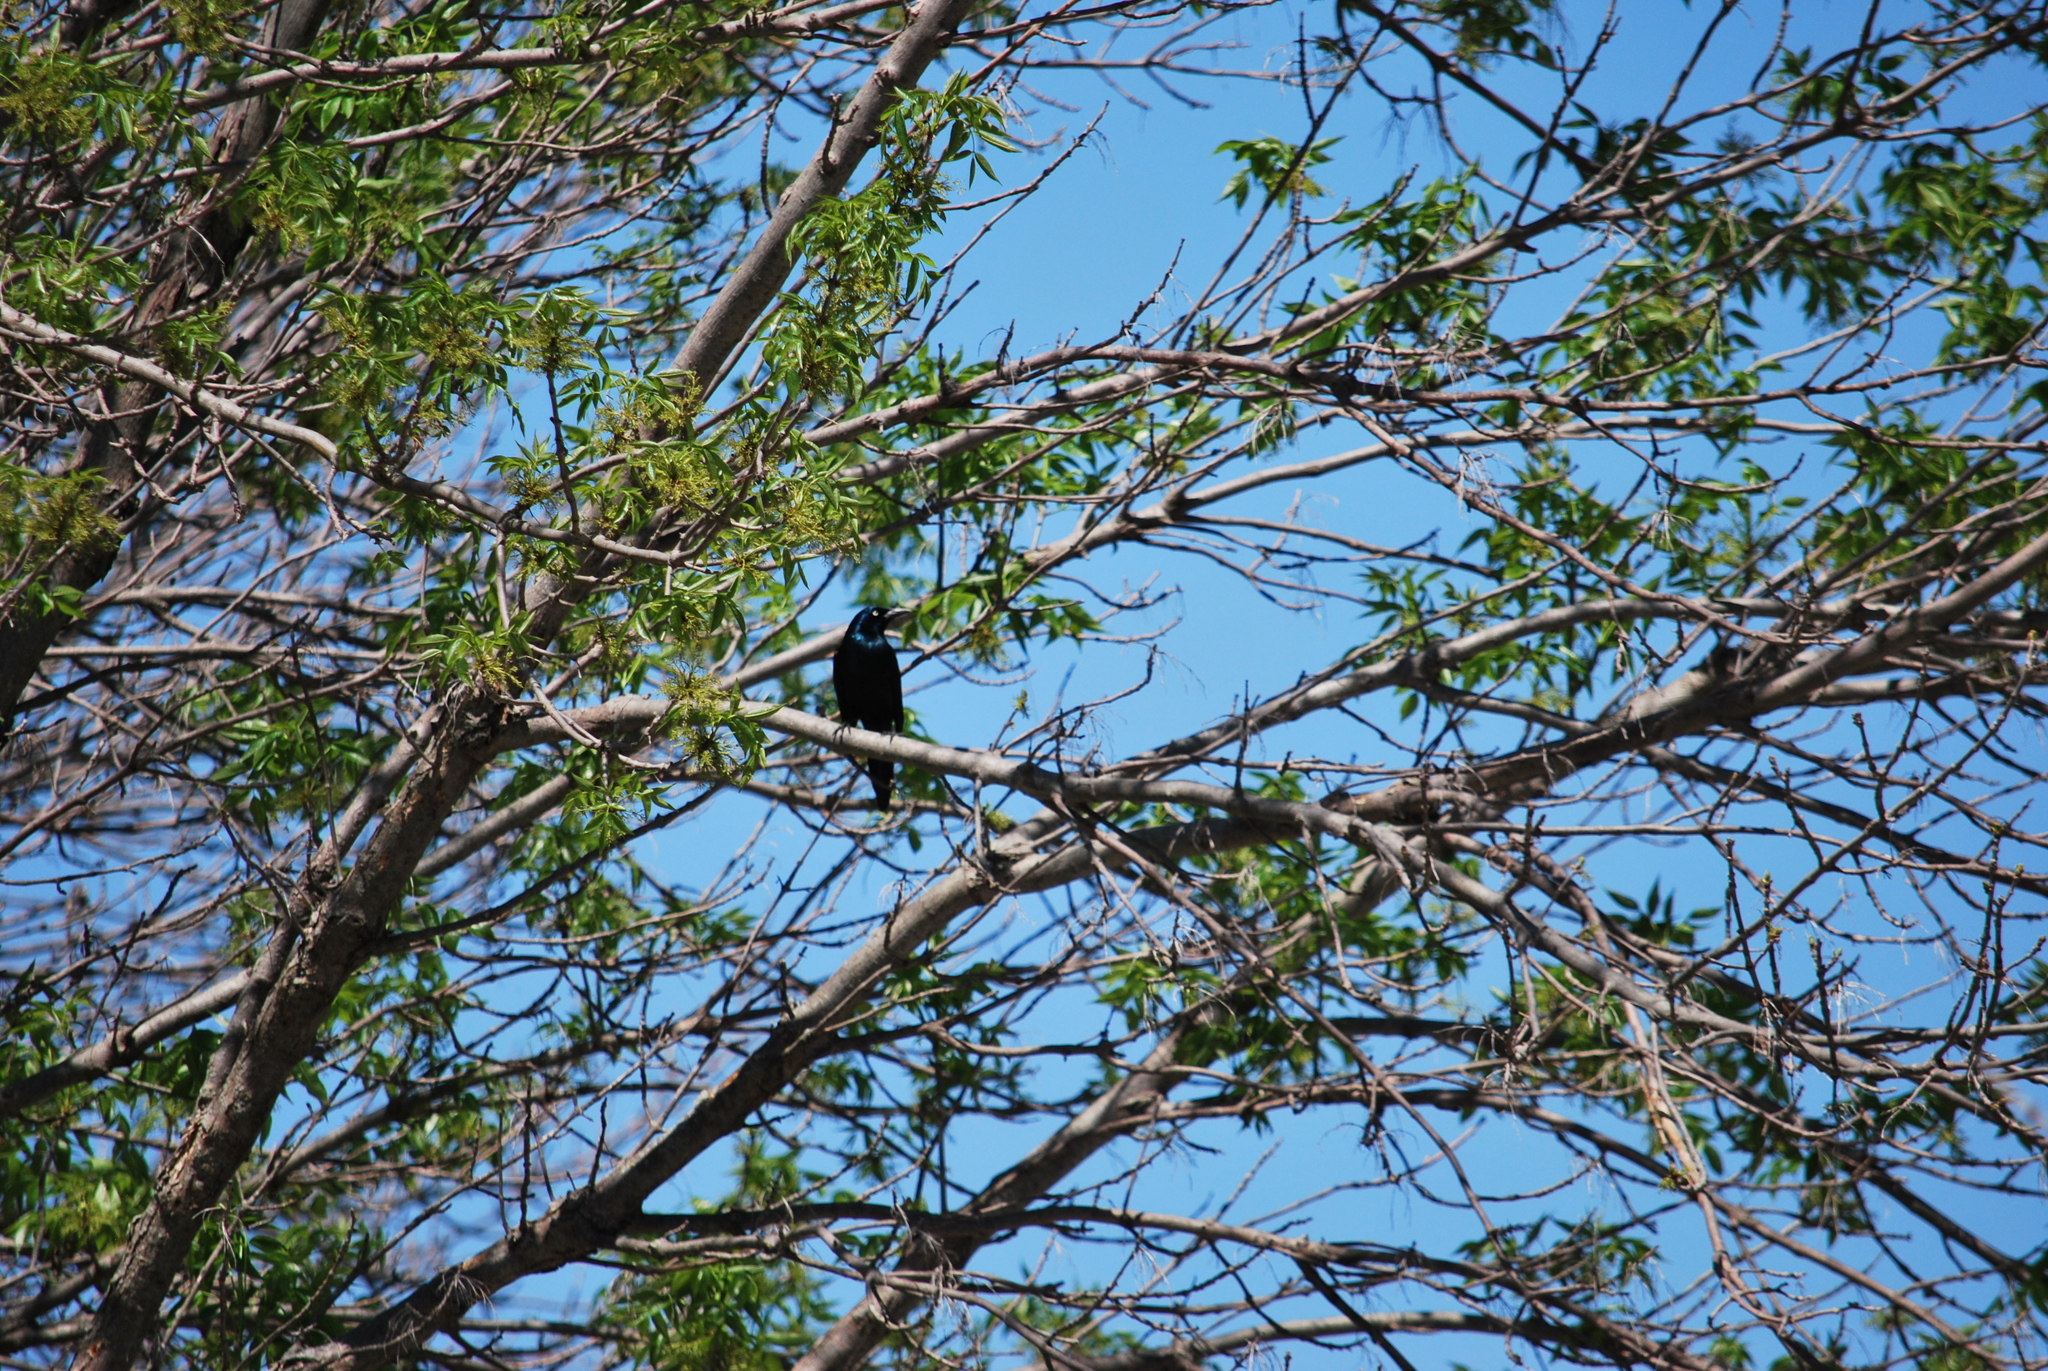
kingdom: Animalia
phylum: Chordata
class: Aves
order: Passeriformes
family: Icteridae
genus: Quiscalus
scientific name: Quiscalus quiscula
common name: Common grackle
